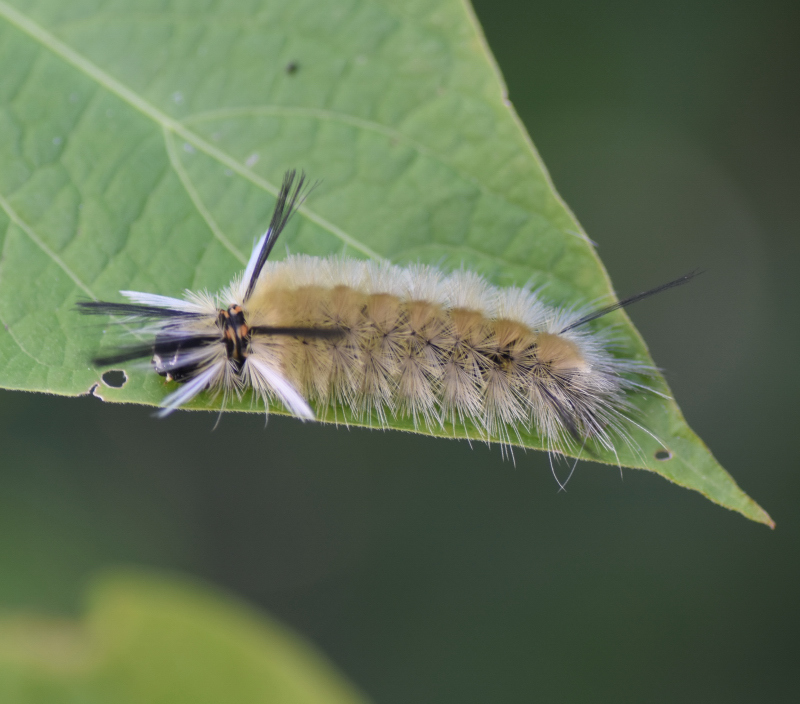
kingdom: Animalia
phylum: Arthropoda
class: Insecta
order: Lepidoptera
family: Erebidae
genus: Halysidota
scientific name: Halysidota tessellaris
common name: Banded tussock moth
